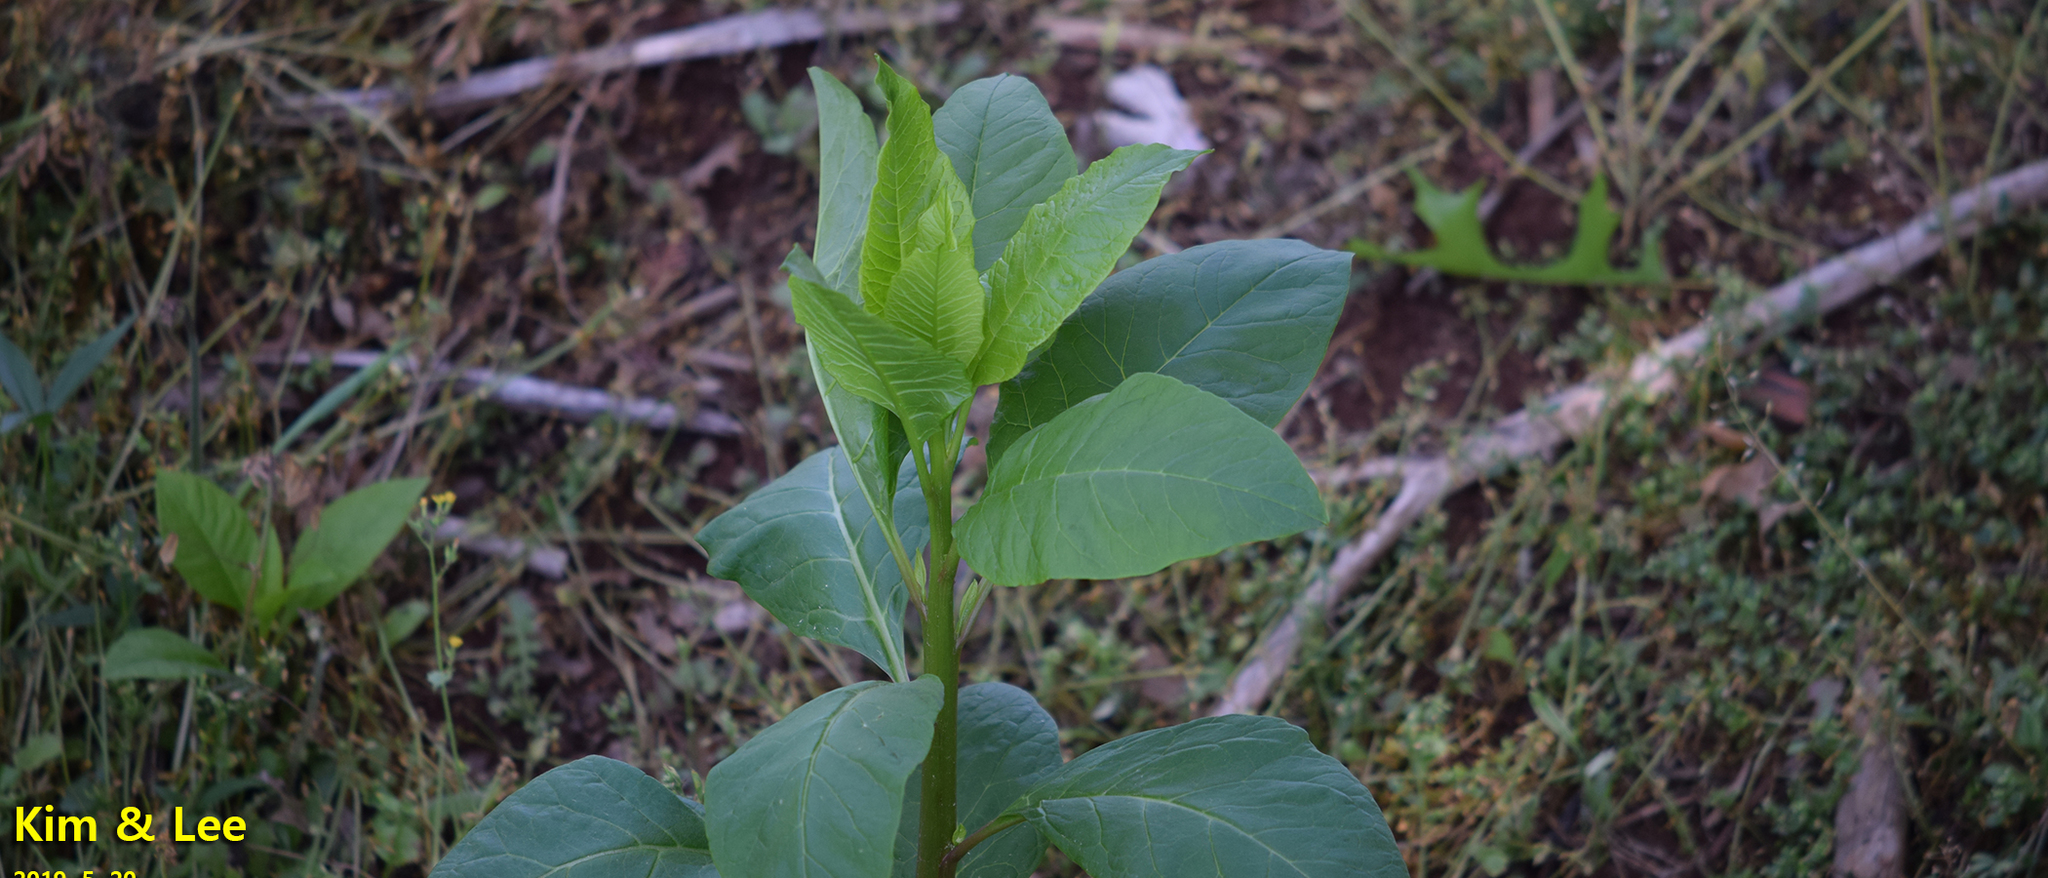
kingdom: Plantae
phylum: Tracheophyta
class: Magnoliopsida
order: Caryophyllales
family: Phytolaccaceae
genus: Phytolacca
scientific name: Phytolacca americana
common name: American pokeweed
